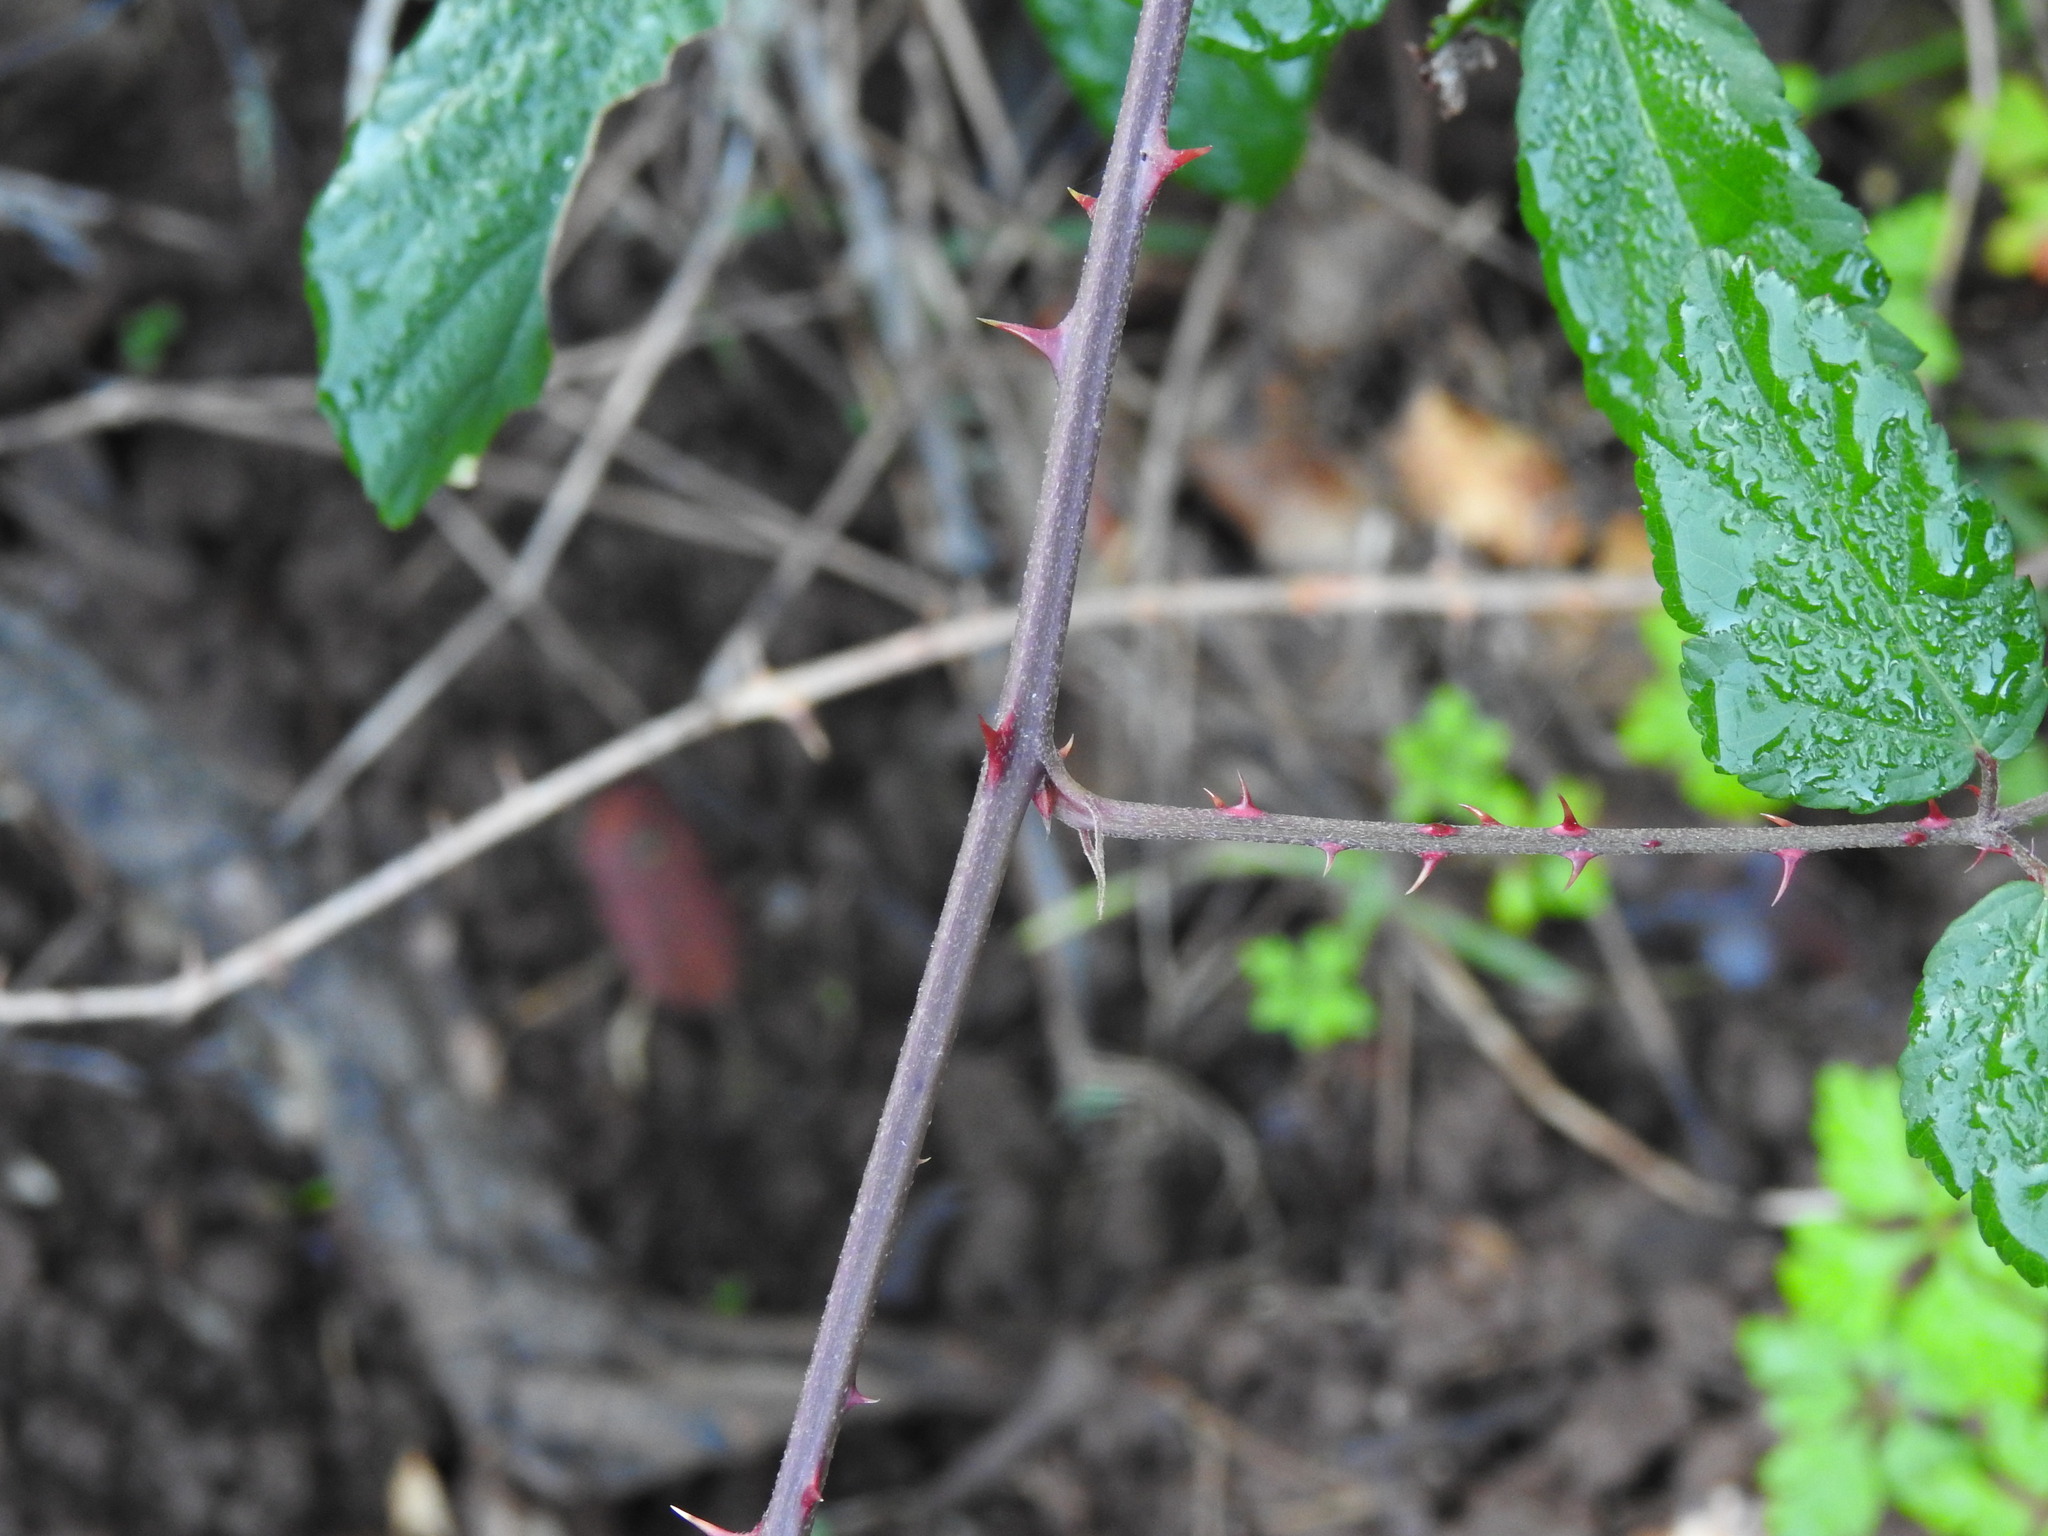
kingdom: Plantae
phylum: Tracheophyta
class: Magnoliopsida
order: Rosales
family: Rosaceae
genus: Rubus
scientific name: Rubus ulmifolius
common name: Elmleaf blackberry
